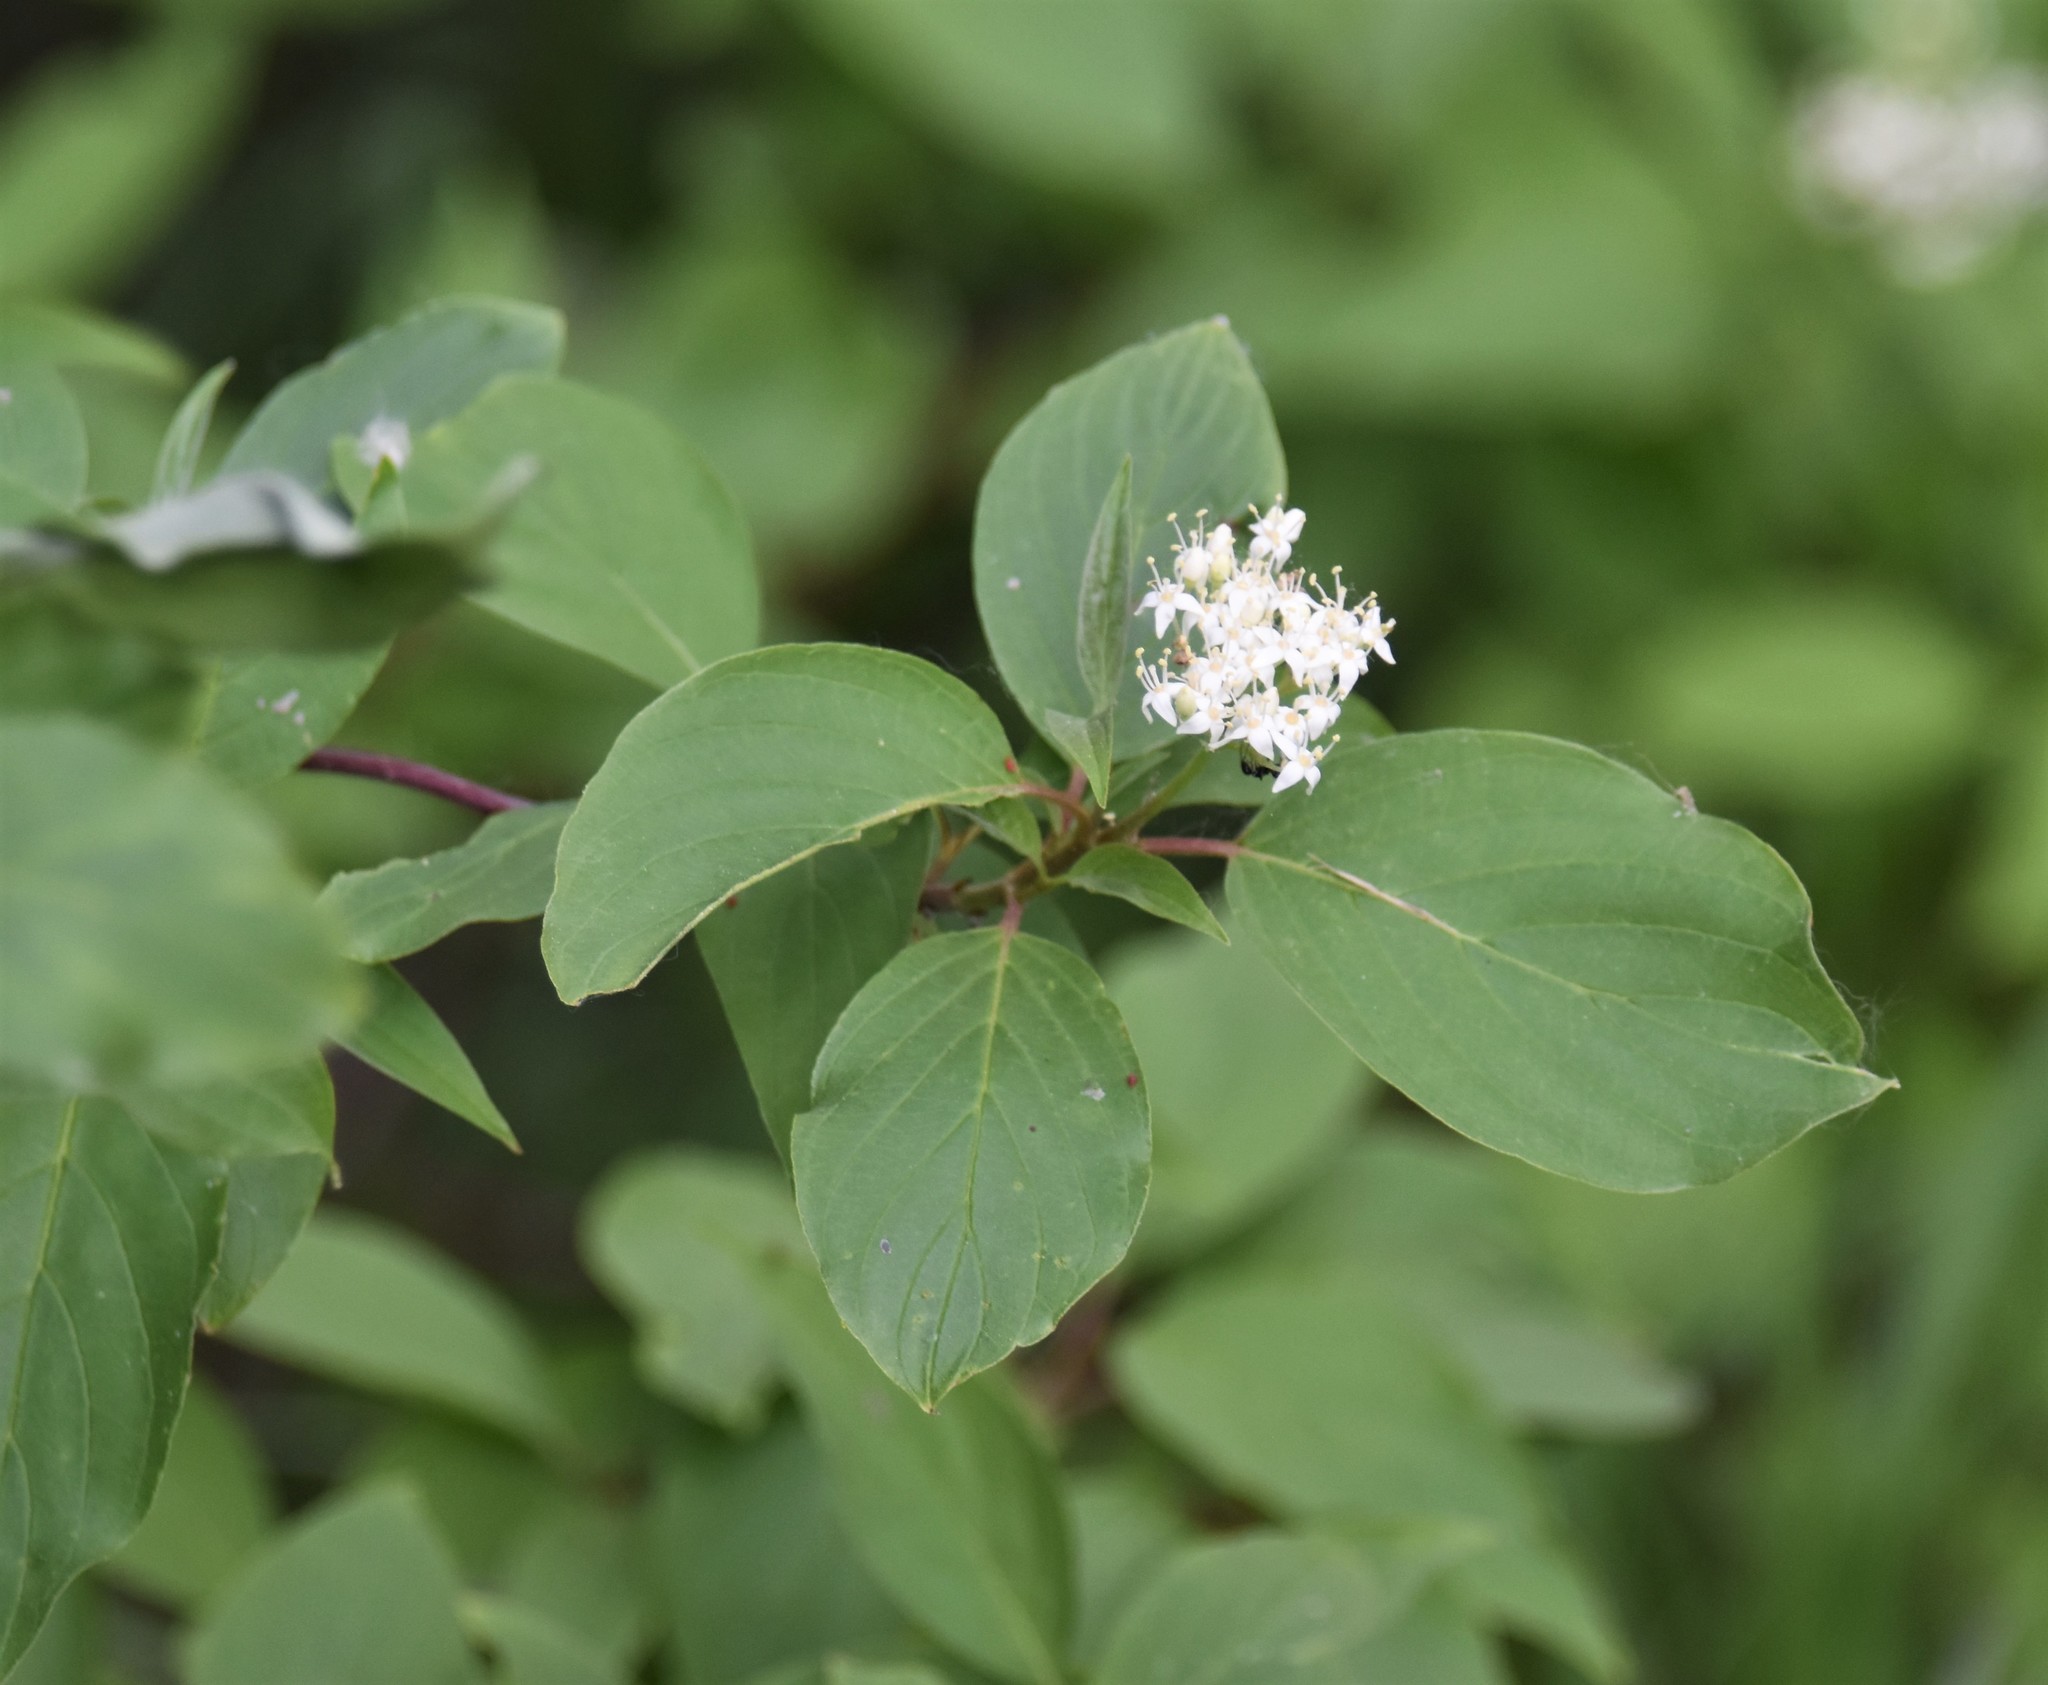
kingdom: Plantae
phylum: Tracheophyta
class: Magnoliopsida
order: Cornales
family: Cornaceae
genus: Cornus
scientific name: Cornus sericea
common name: Red-osier dogwood
